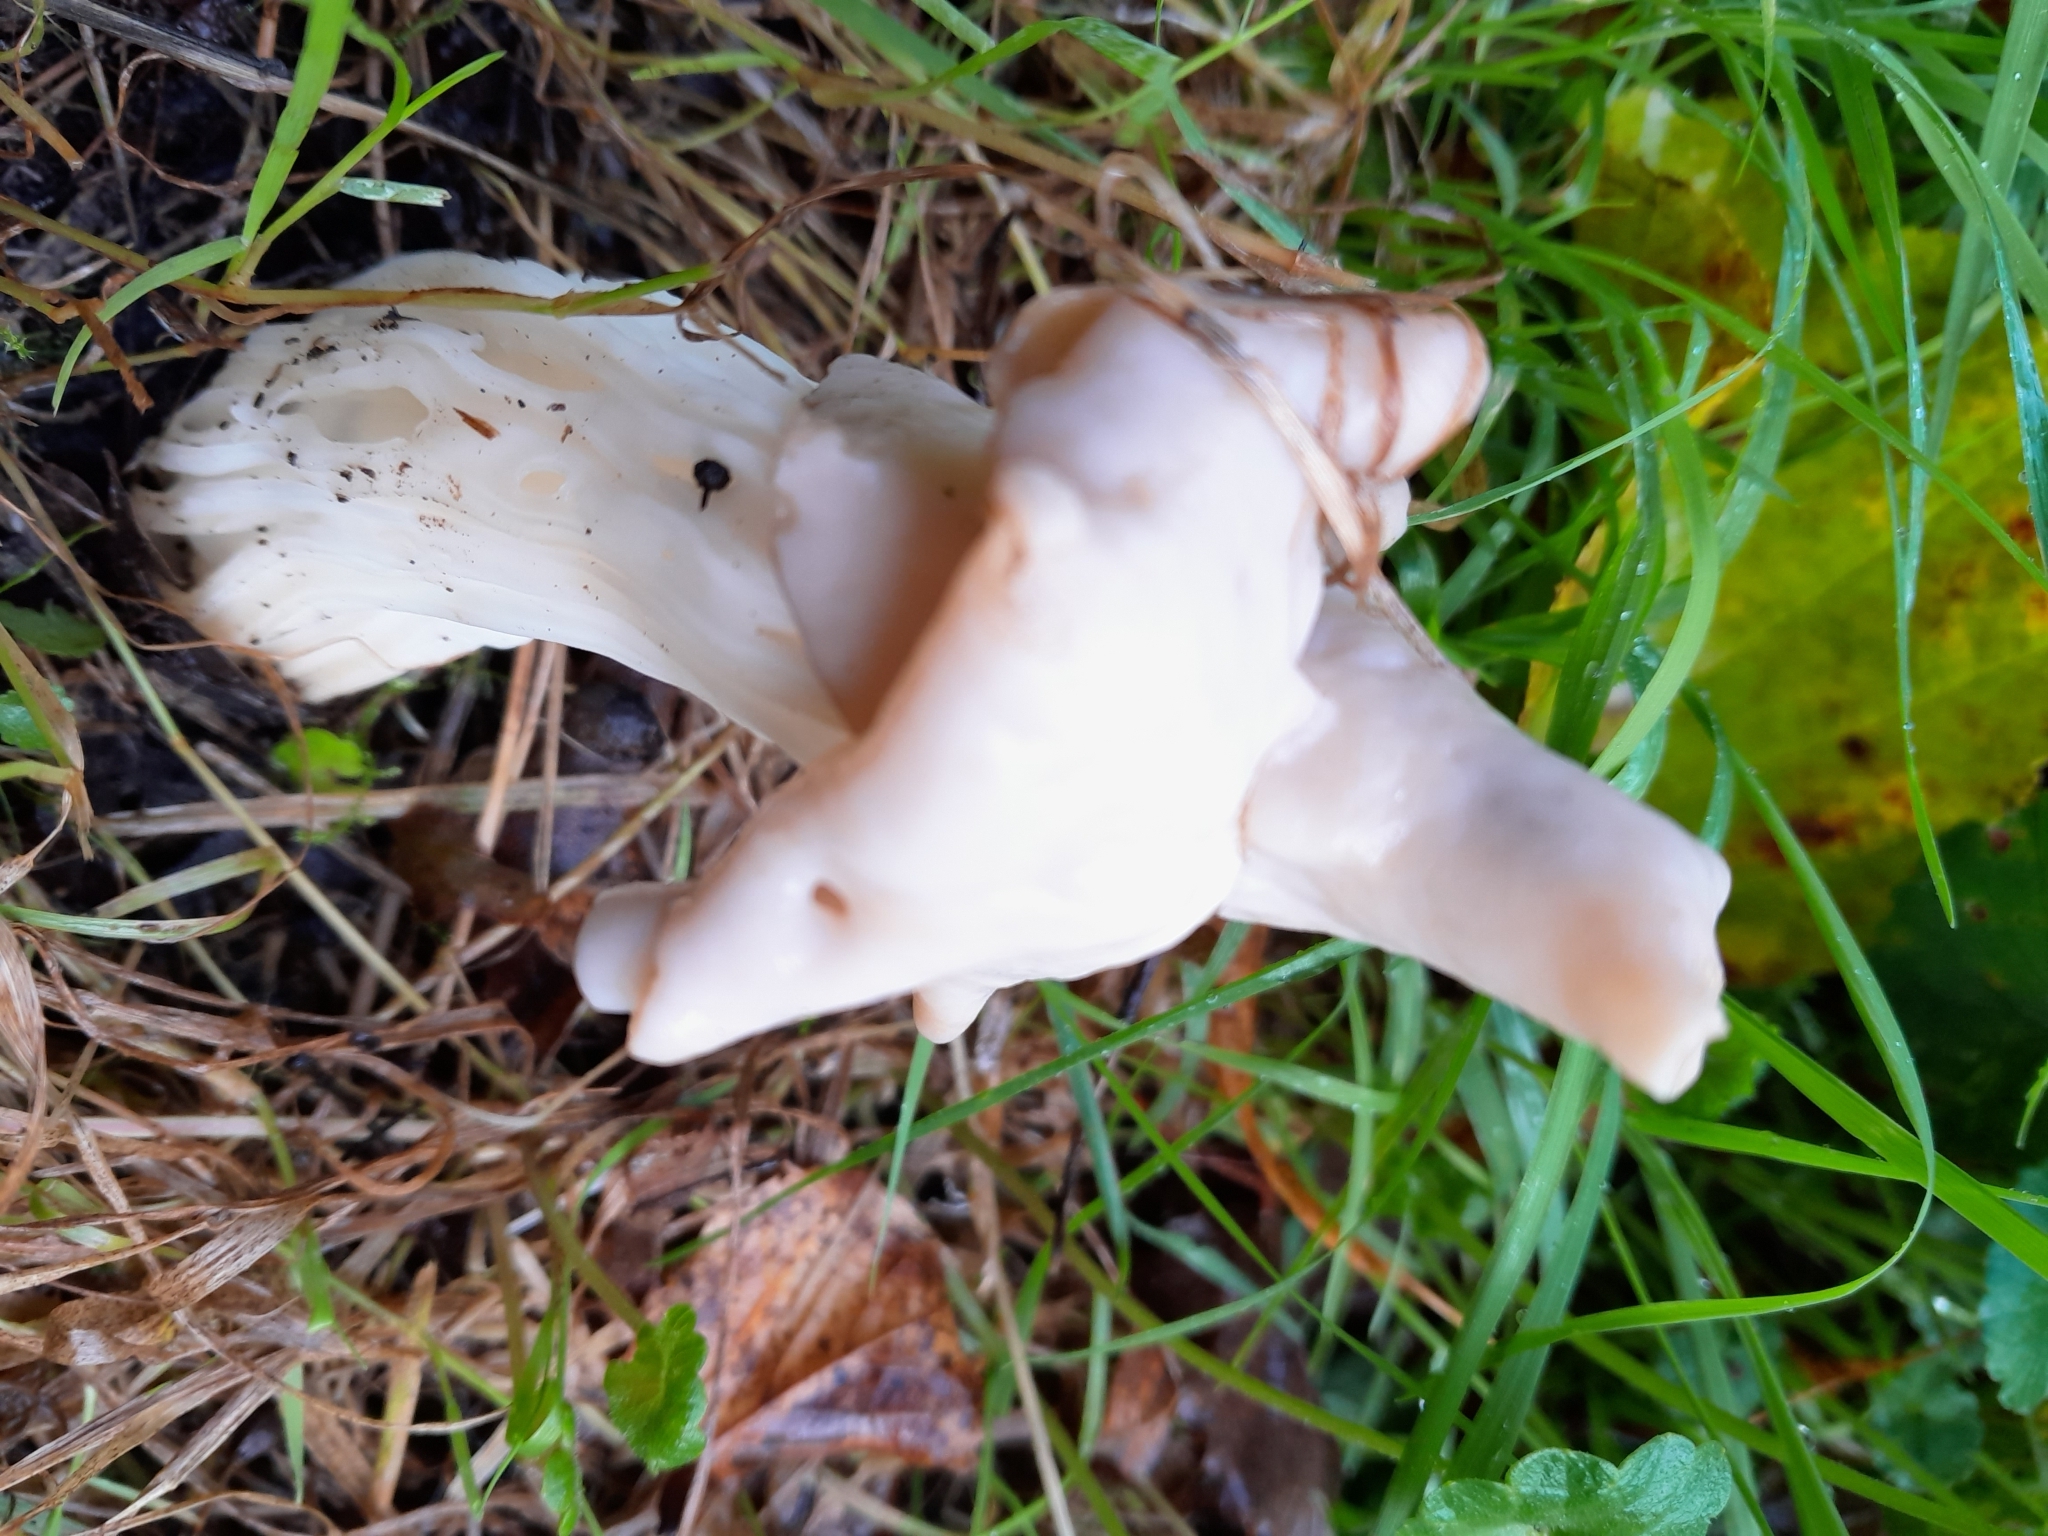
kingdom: Fungi
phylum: Ascomycota
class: Pezizomycetes
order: Pezizales
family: Helvellaceae
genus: Helvella
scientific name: Helvella crispa
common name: White saddle
